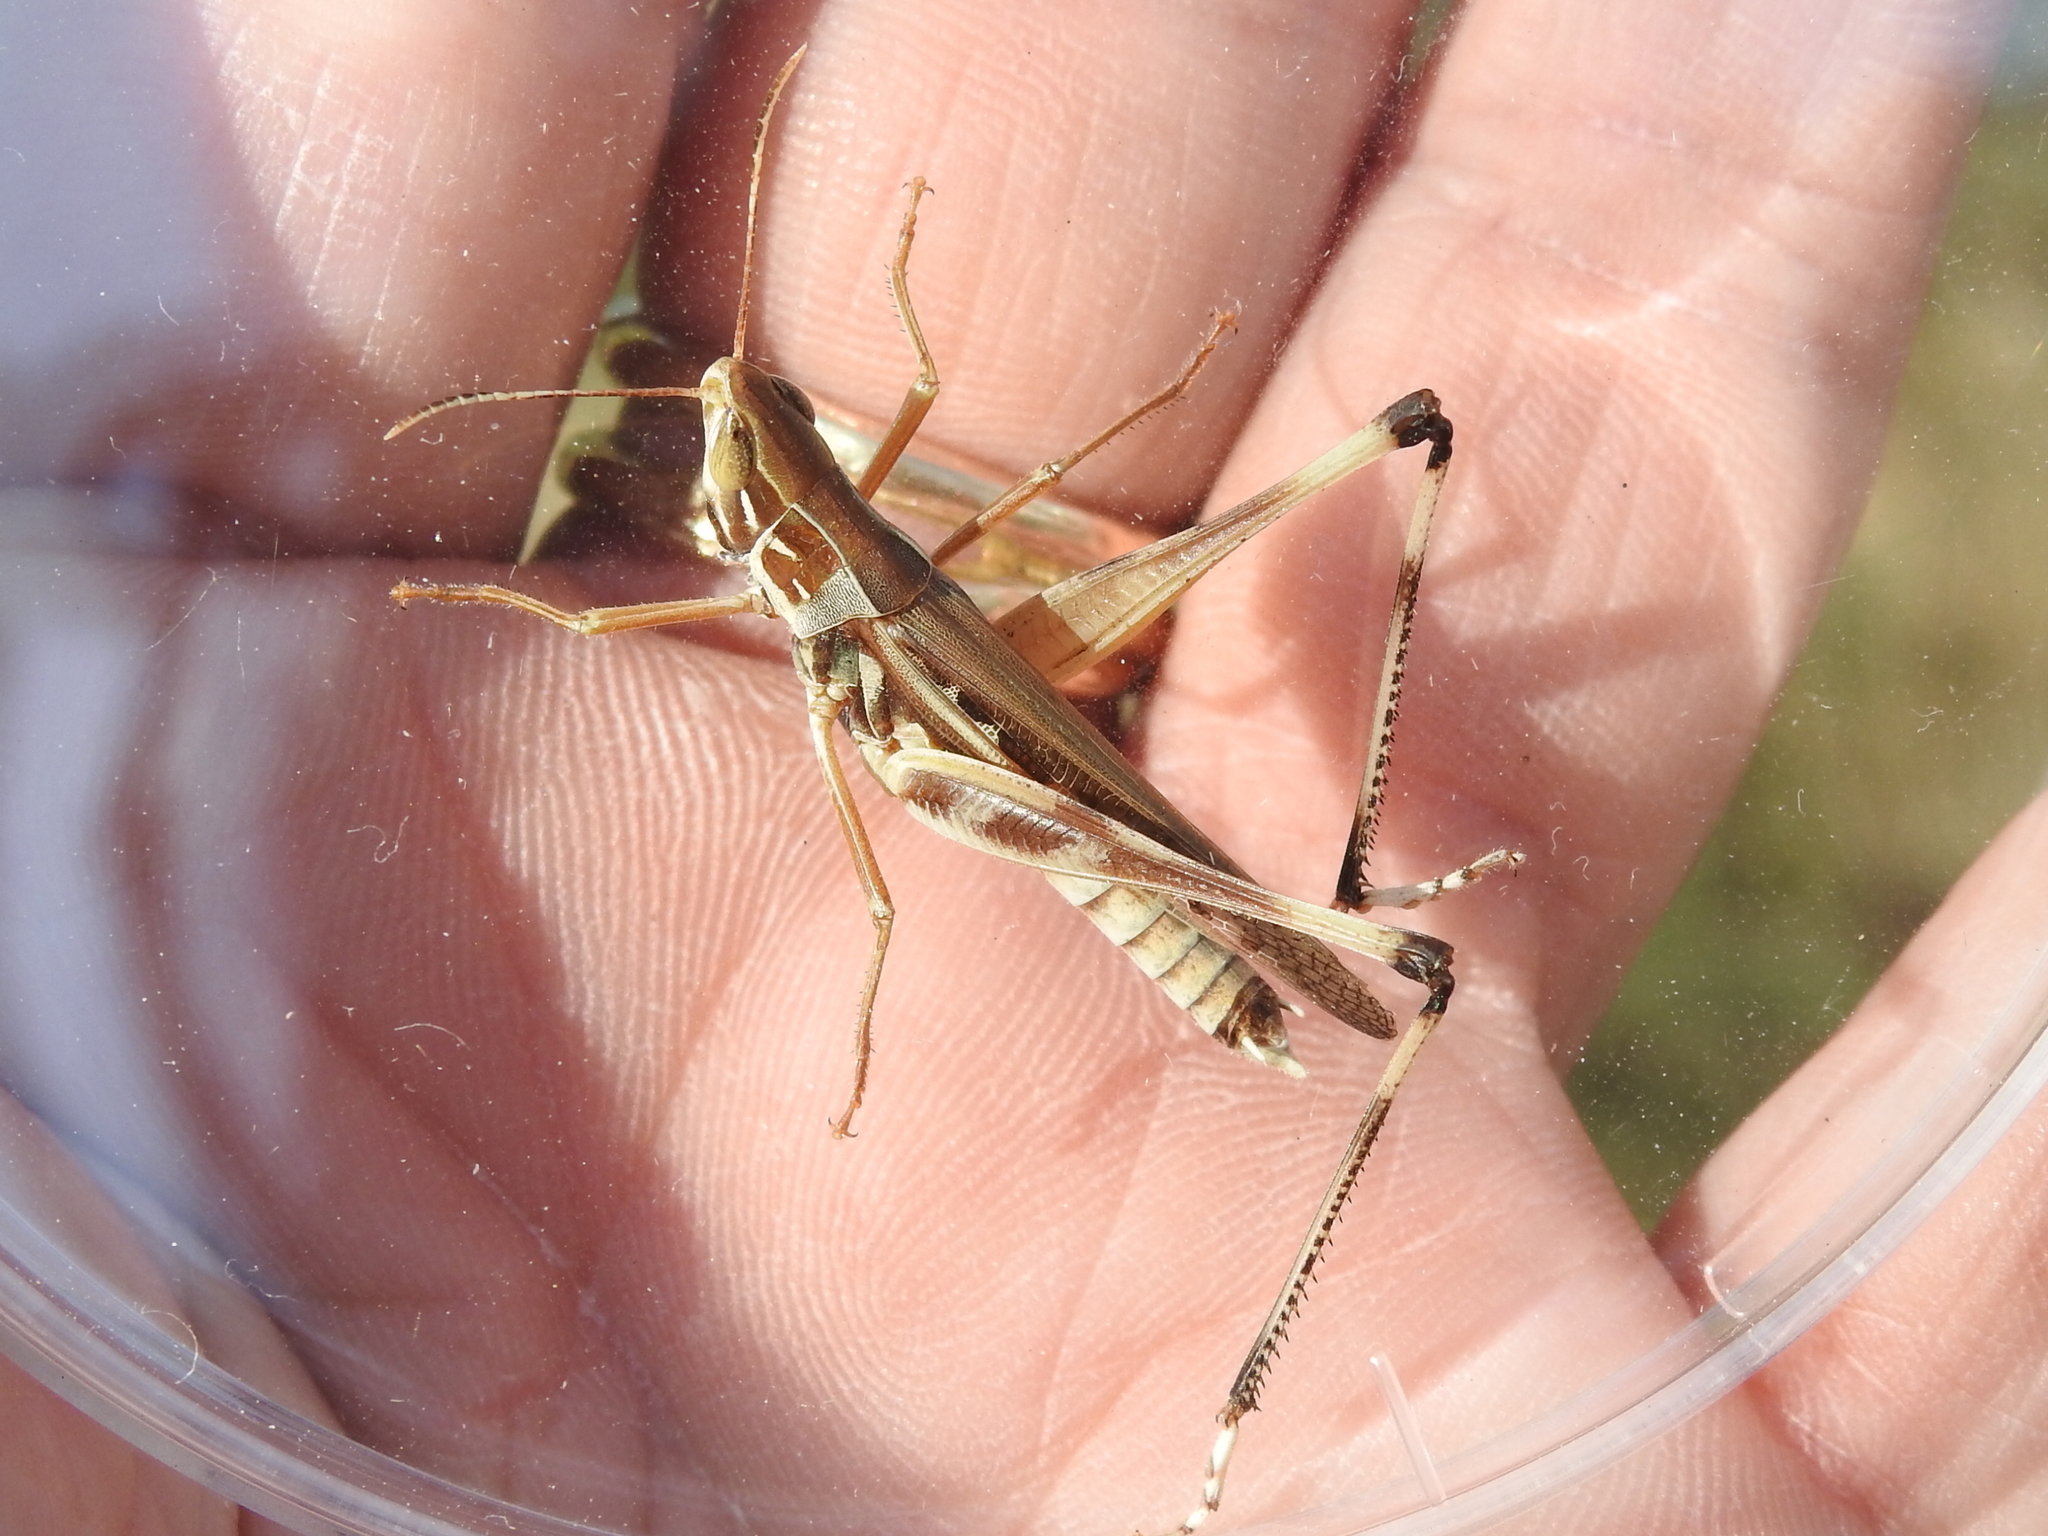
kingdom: Animalia
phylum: Arthropoda
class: Insecta
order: Orthoptera
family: Acrididae
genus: Syrbula
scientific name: Syrbula admirabilis
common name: Handsome grasshopper
